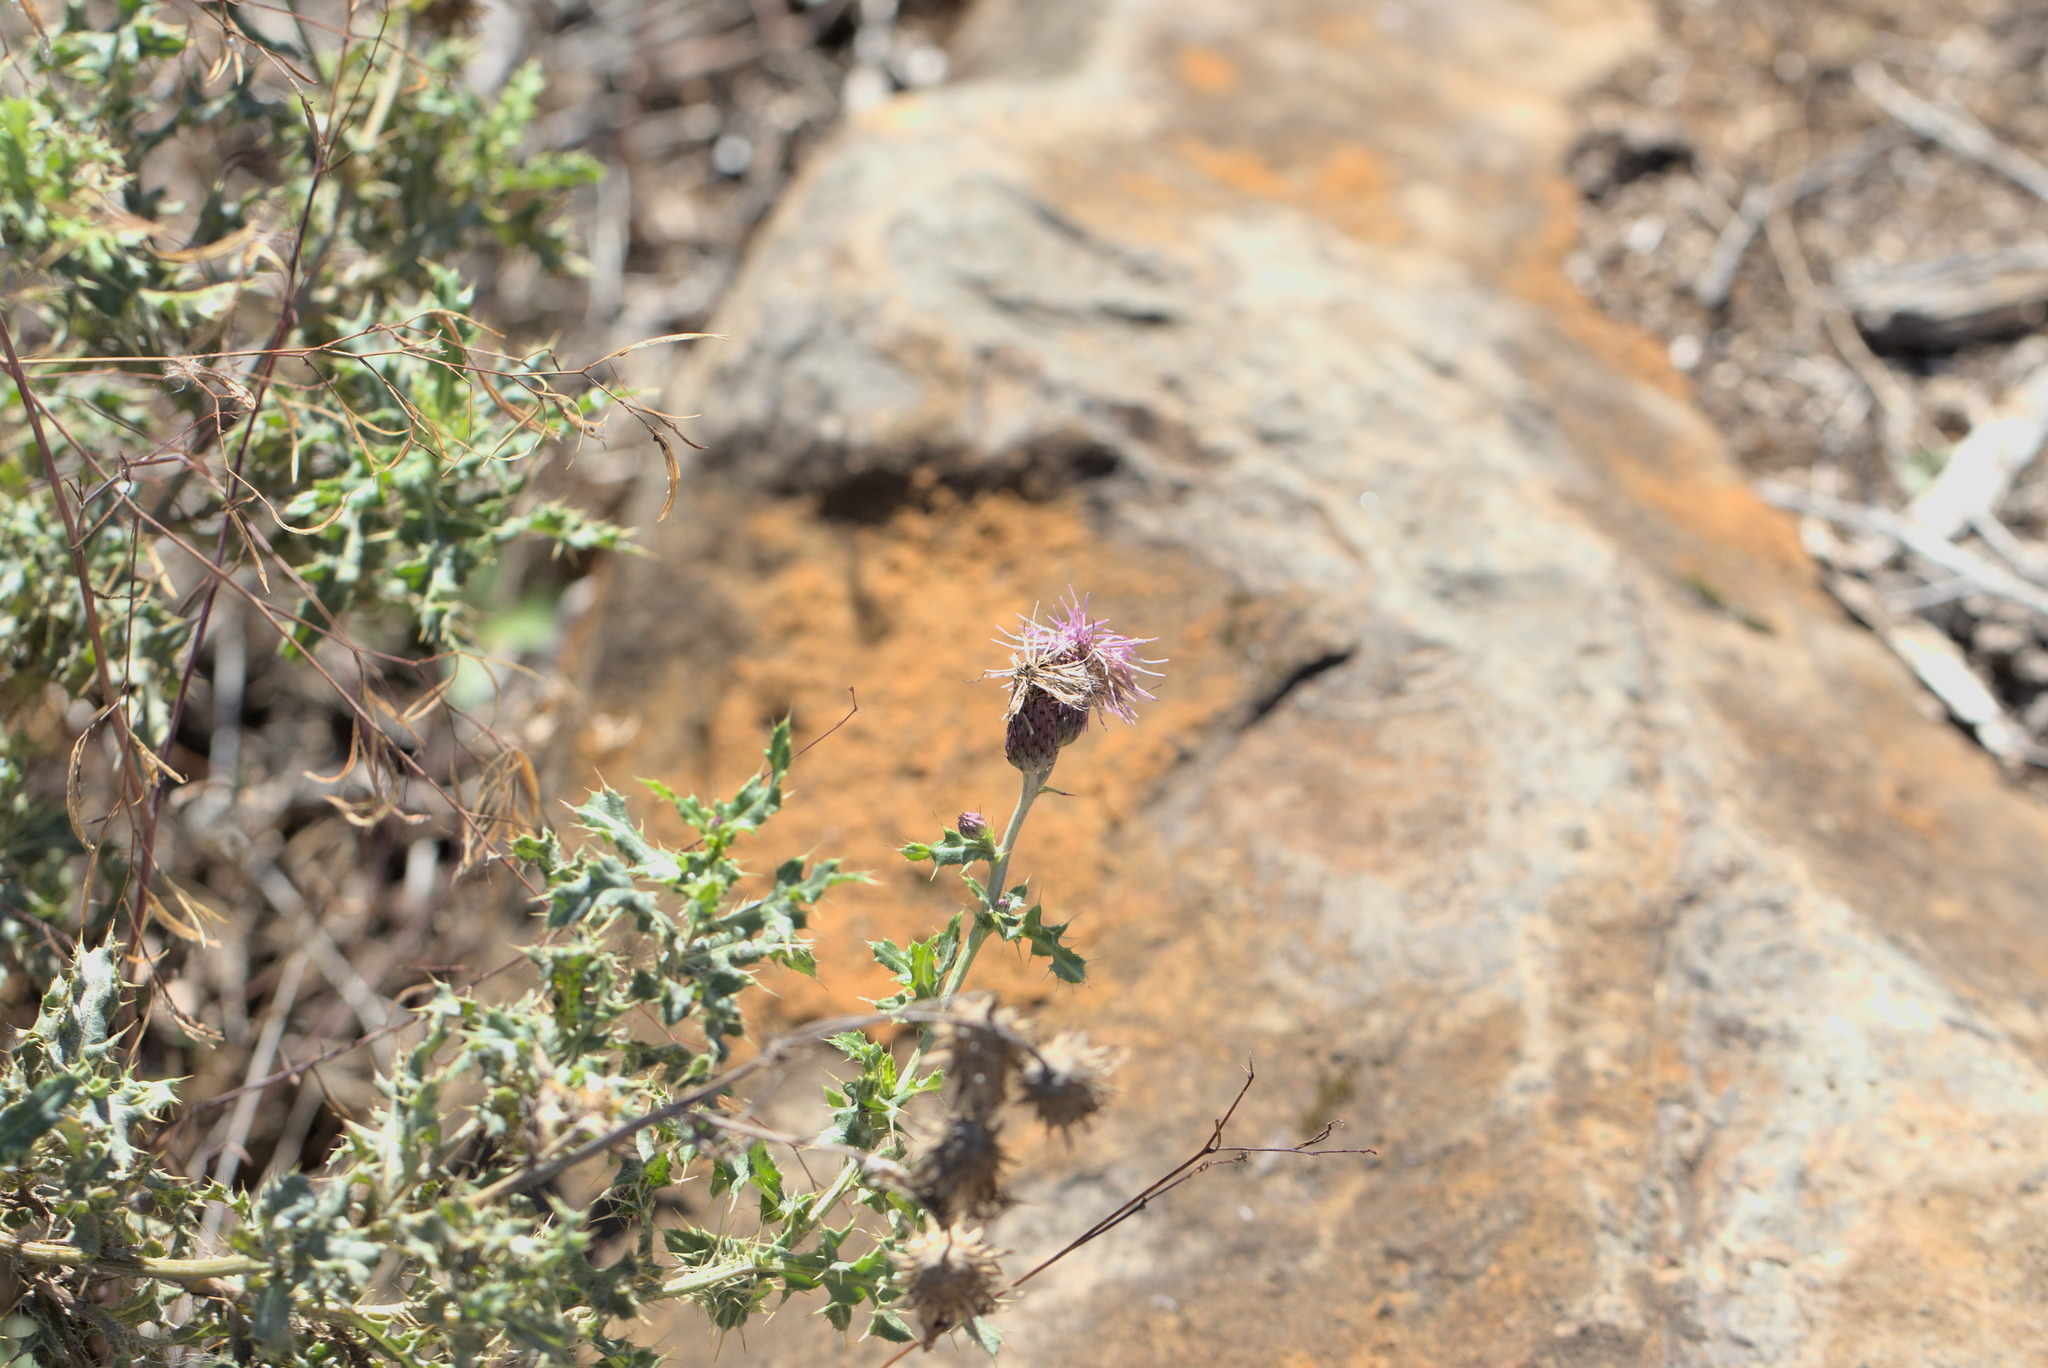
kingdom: Plantae
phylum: Tracheophyta
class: Magnoliopsida
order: Asterales
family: Asteraceae
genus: Cirsium
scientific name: Cirsium arvense
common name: Creeping thistle
